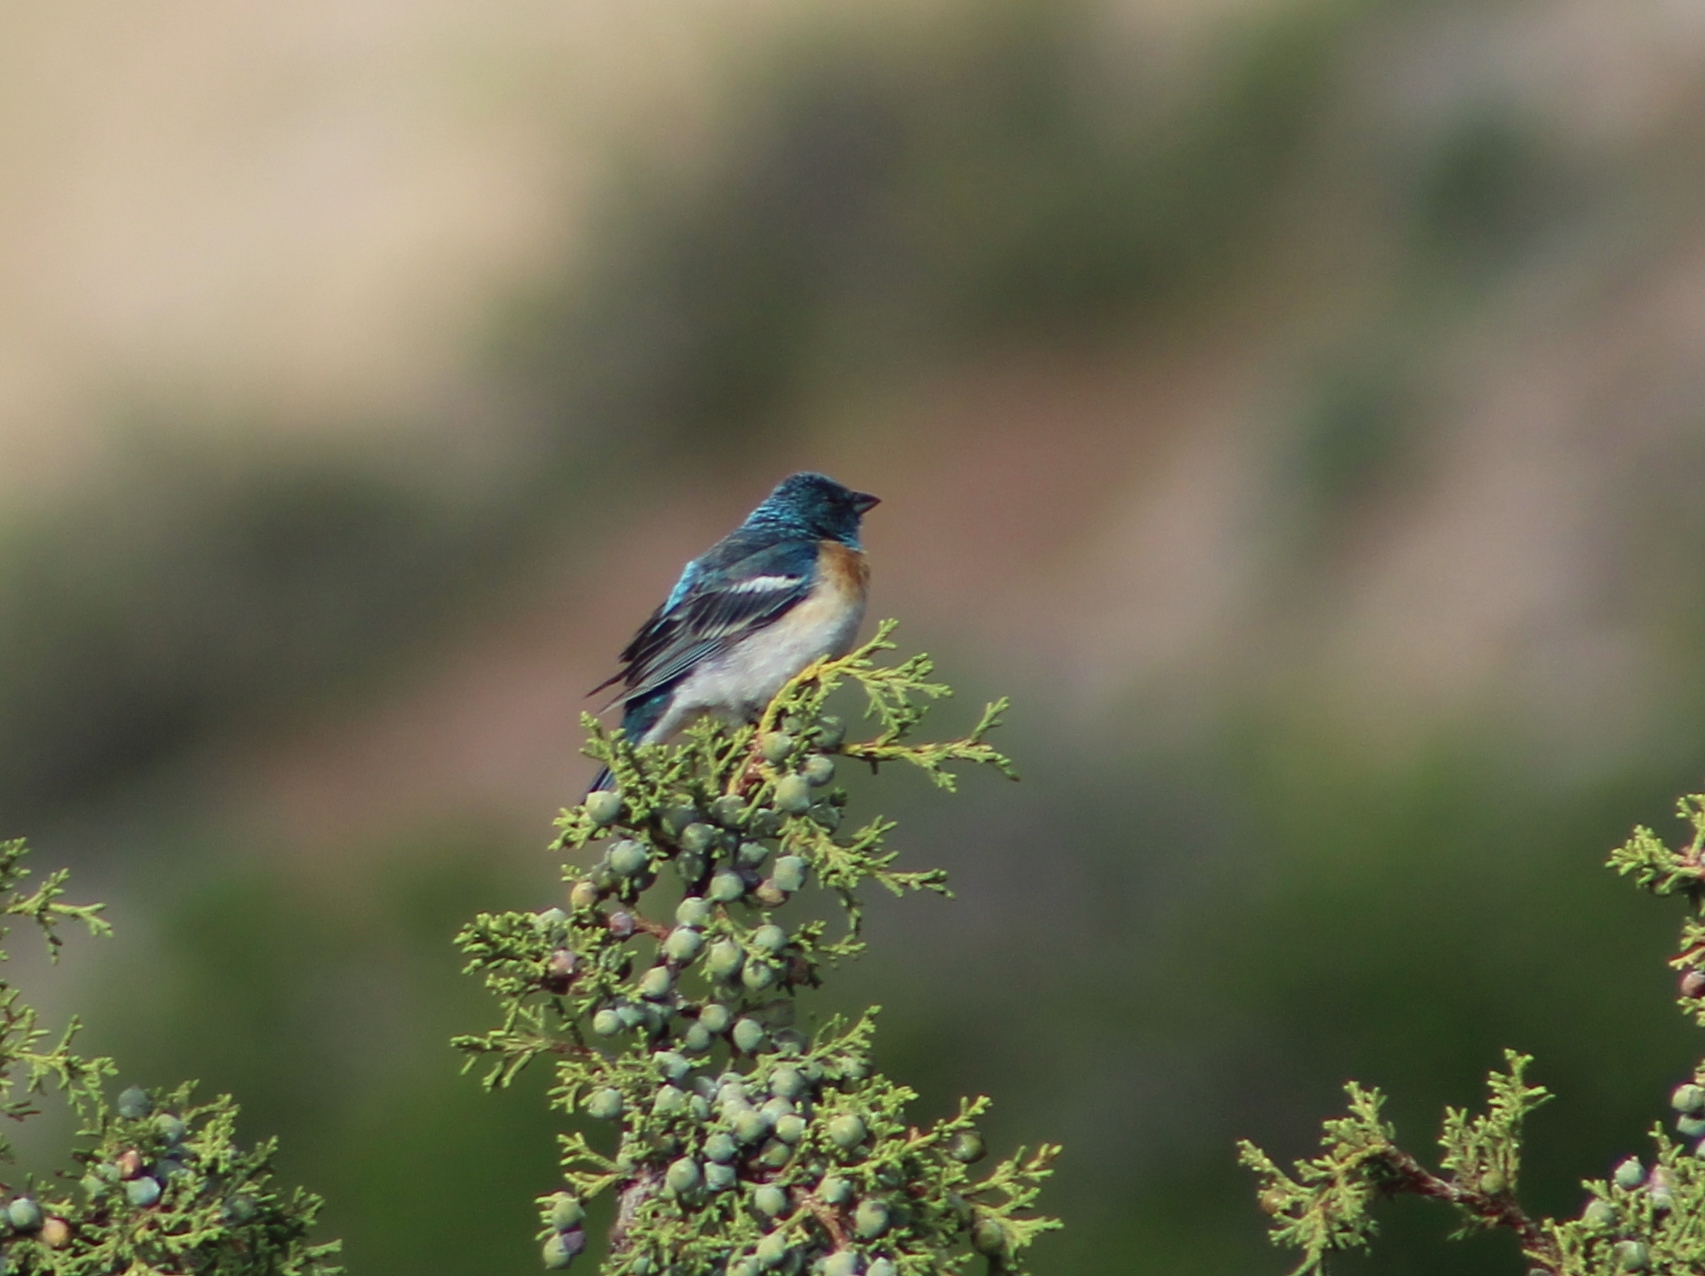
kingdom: Animalia
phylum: Chordata
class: Aves
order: Passeriformes
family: Cardinalidae
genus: Passerina
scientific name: Passerina amoena
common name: Lazuli bunting
